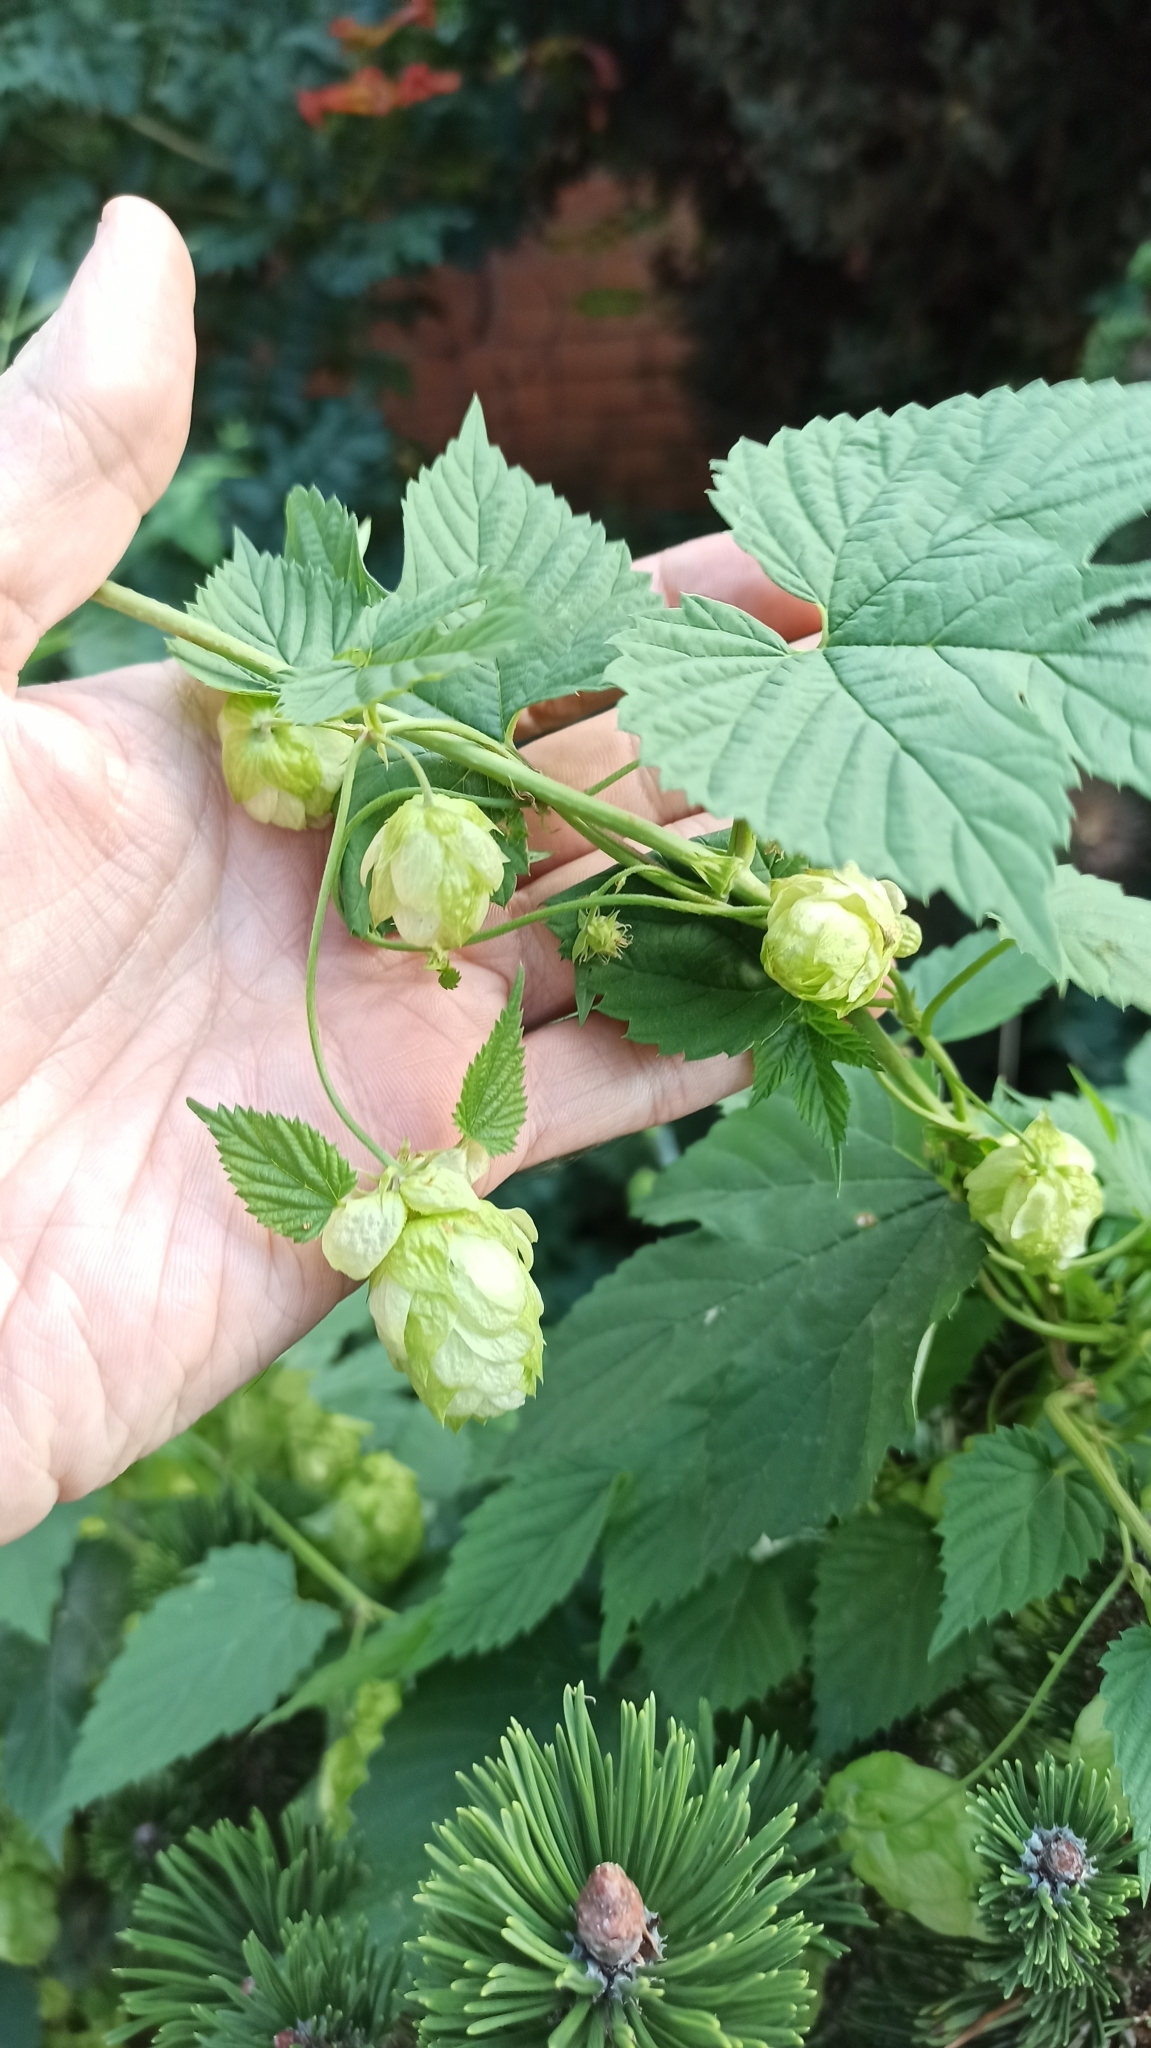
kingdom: Plantae
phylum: Tracheophyta
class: Magnoliopsida
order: Rosales
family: Cannabaceae
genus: Humulus
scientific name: Humulus lupulus
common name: Hop
